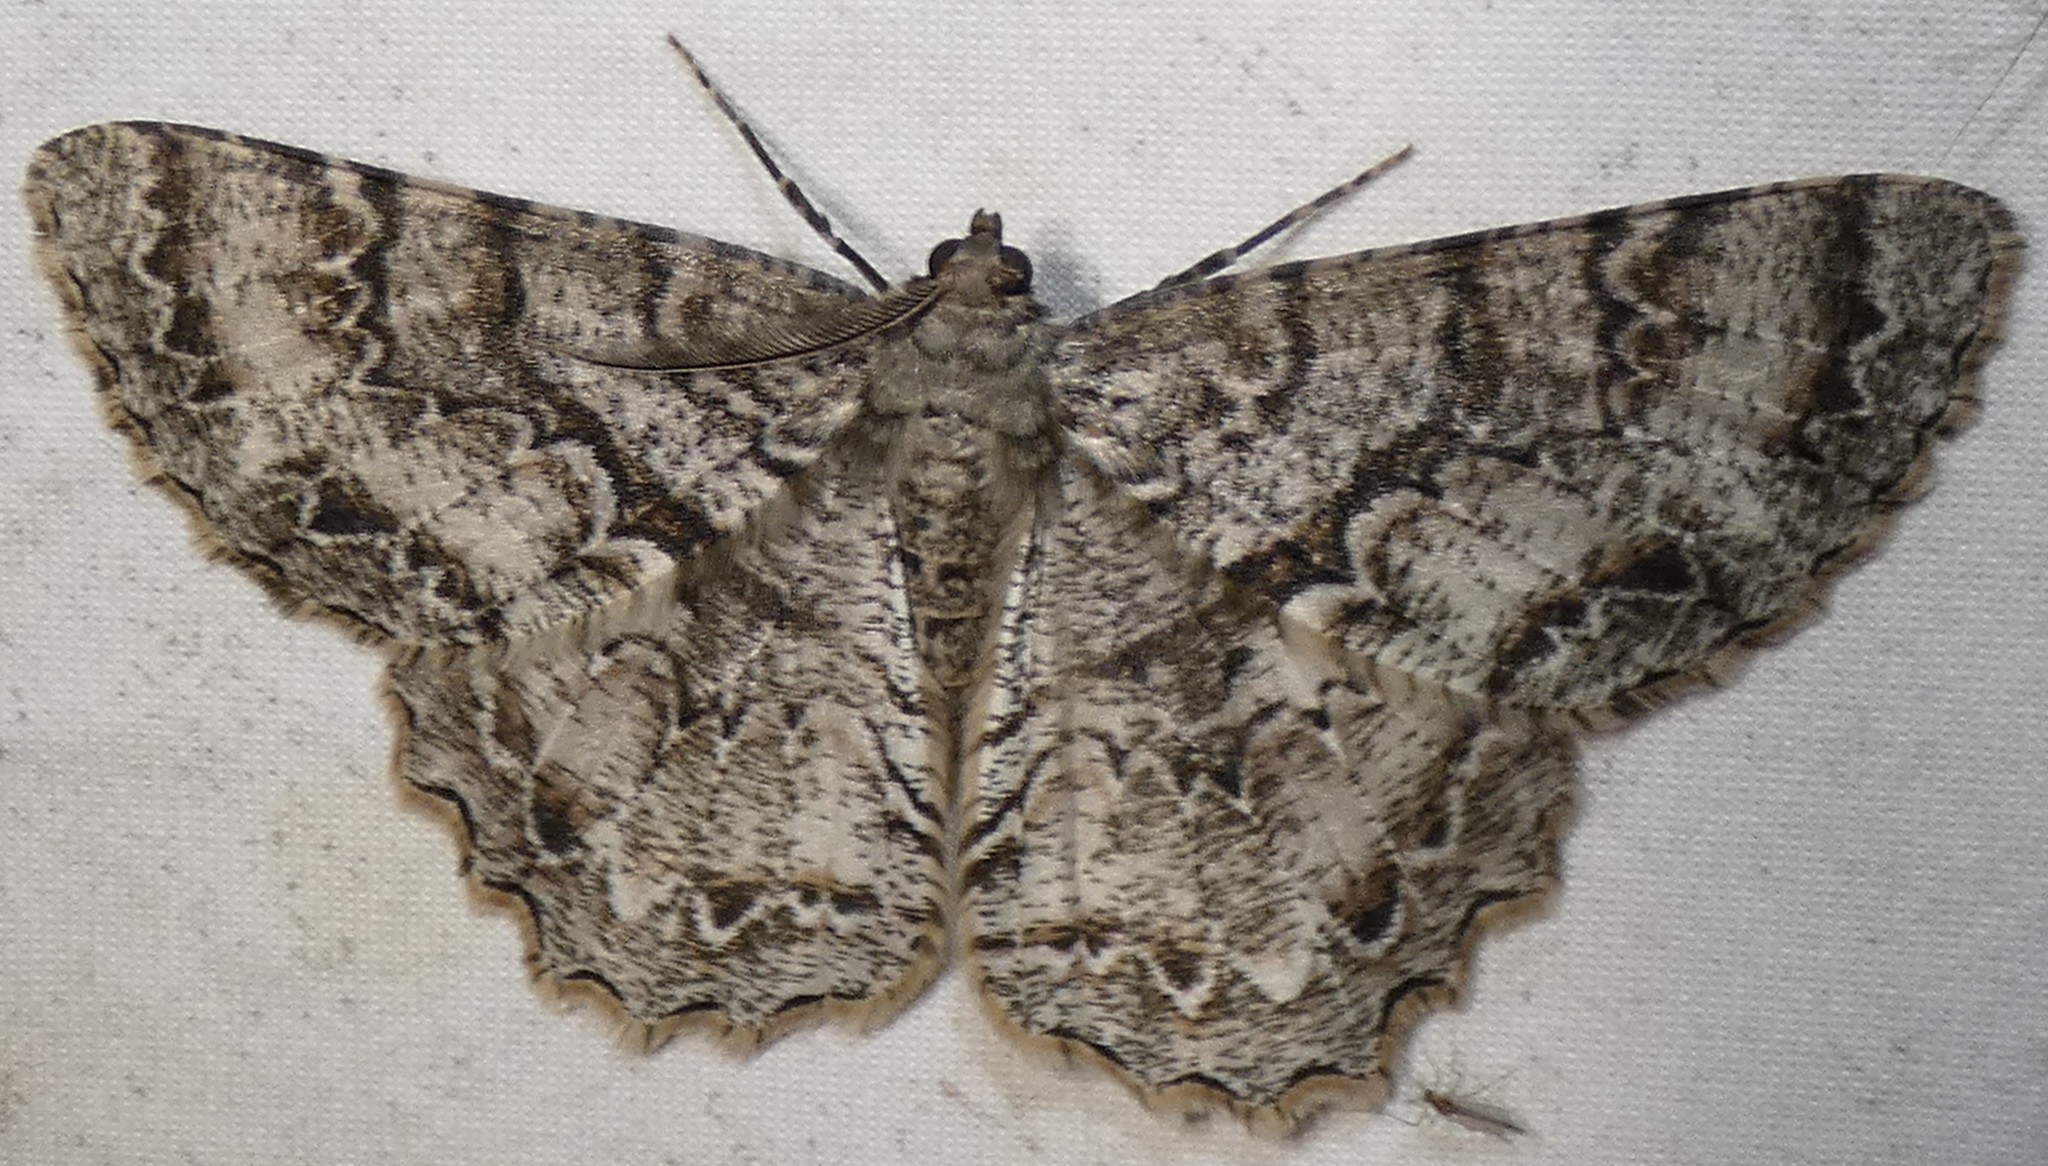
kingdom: Animalia
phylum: Arthropoda
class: Insecta
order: Lepidoptera
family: Geometridae
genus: Epimecis
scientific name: Epimecis hortaria
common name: Tulip-tree beauty
